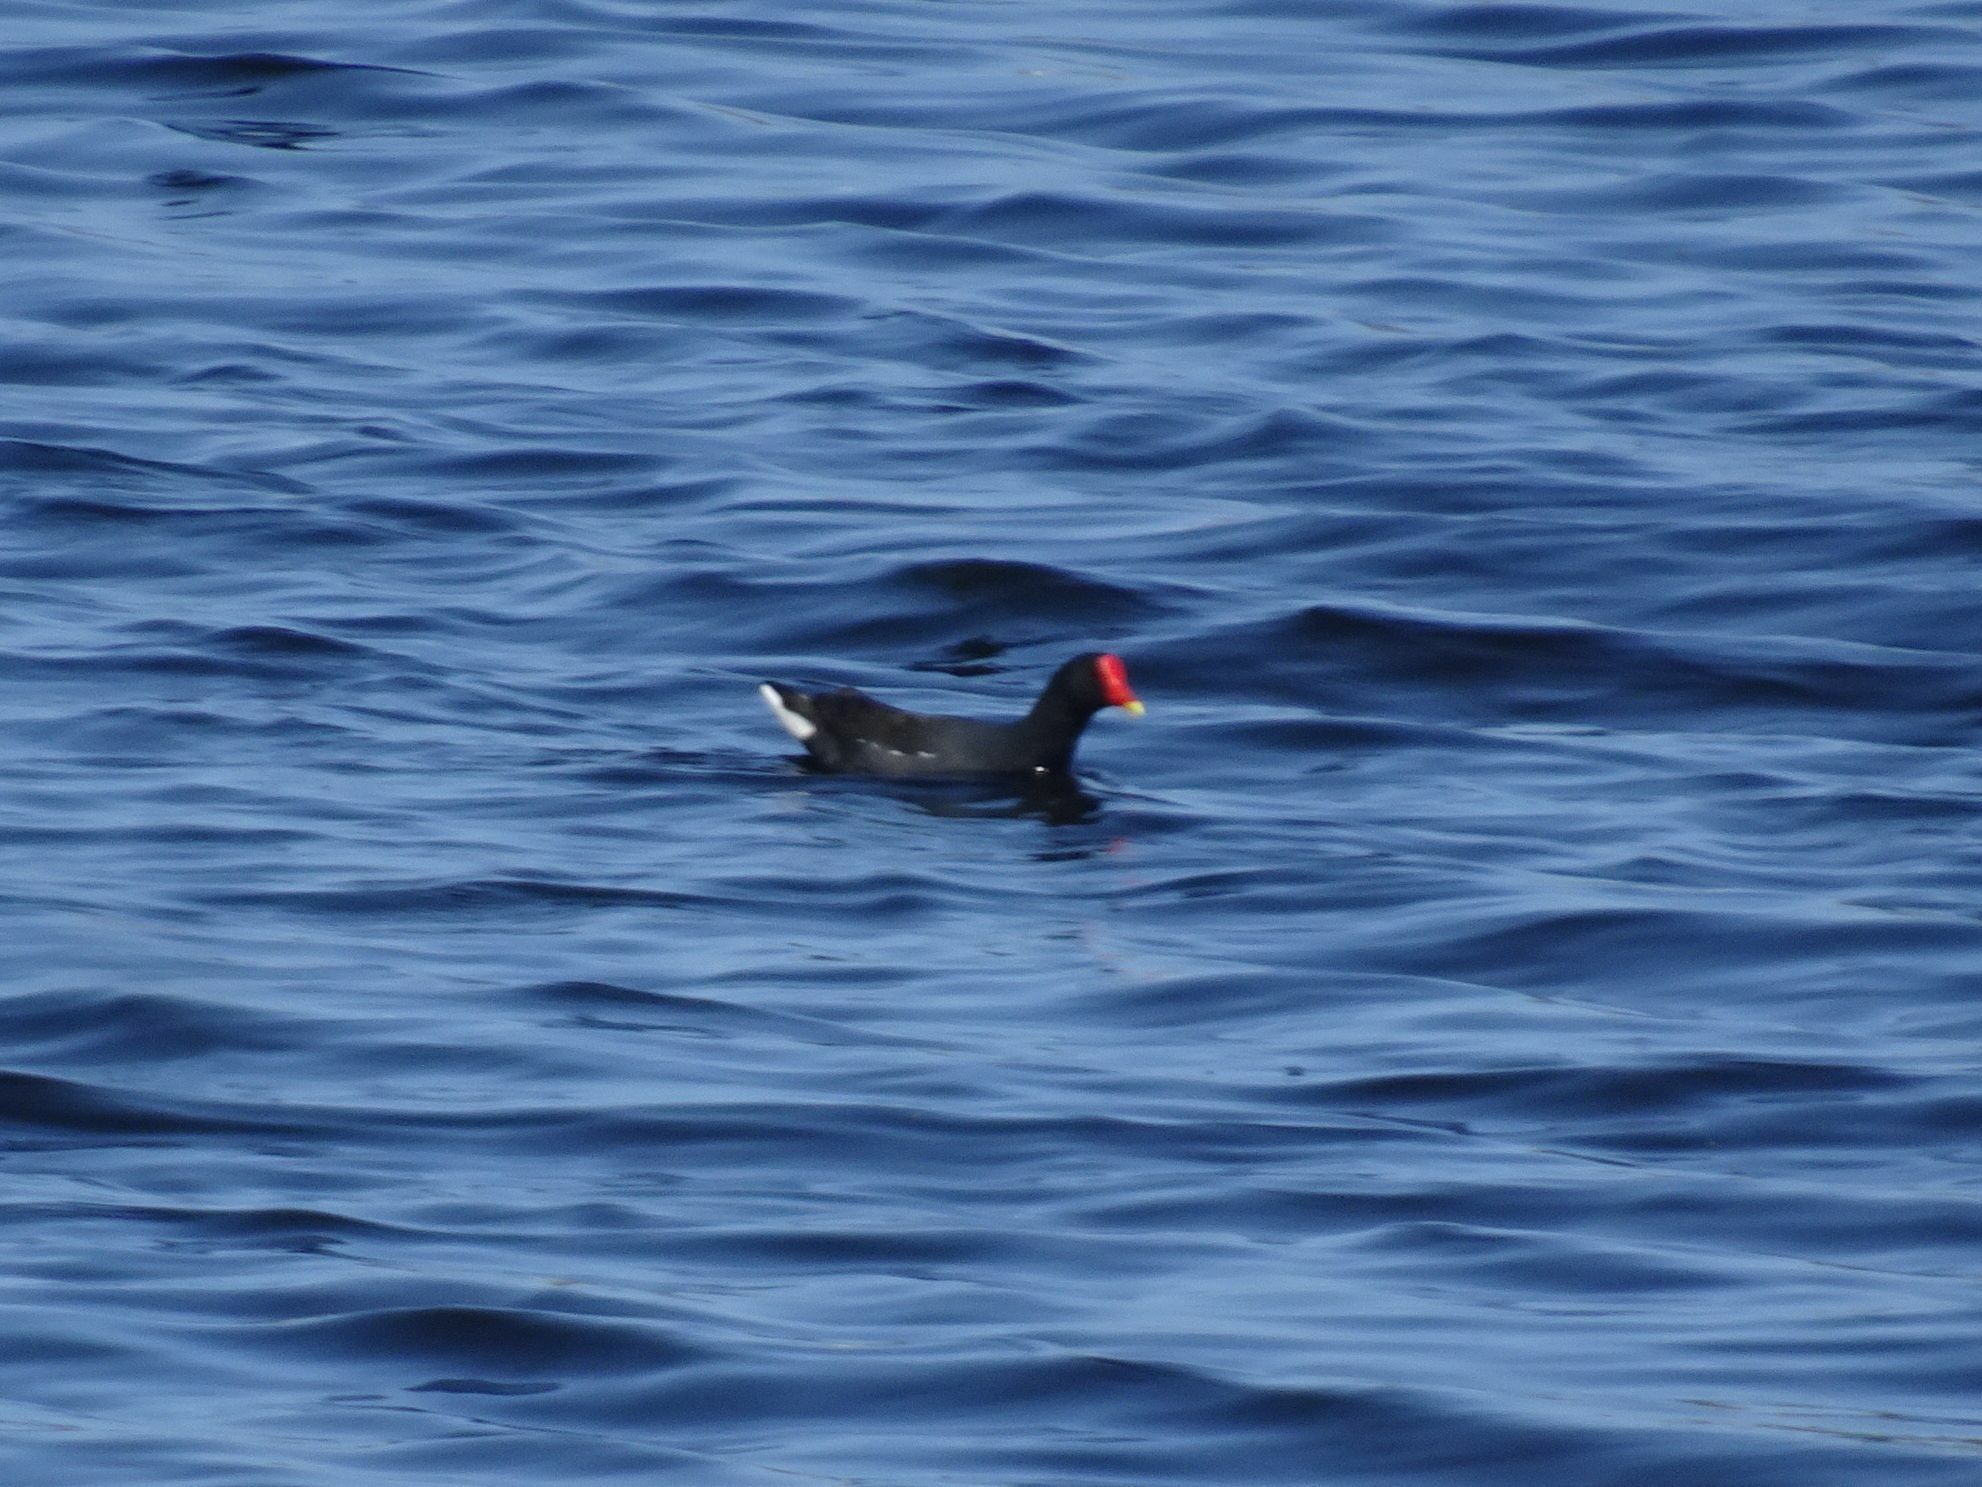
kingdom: Animalia
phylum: Chordata
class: Aves
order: Gruiformes
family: Rallidae
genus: Gallinula
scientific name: Gallinula chloropus
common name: Common moorhen
